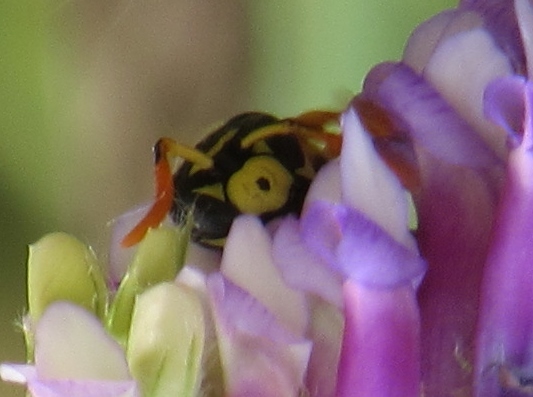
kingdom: Animalia
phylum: Arthropoda
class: Insecta
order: Hymenoptera
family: Eumenidae
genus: Polistes
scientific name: Polistes dominula
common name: Paper wasp
